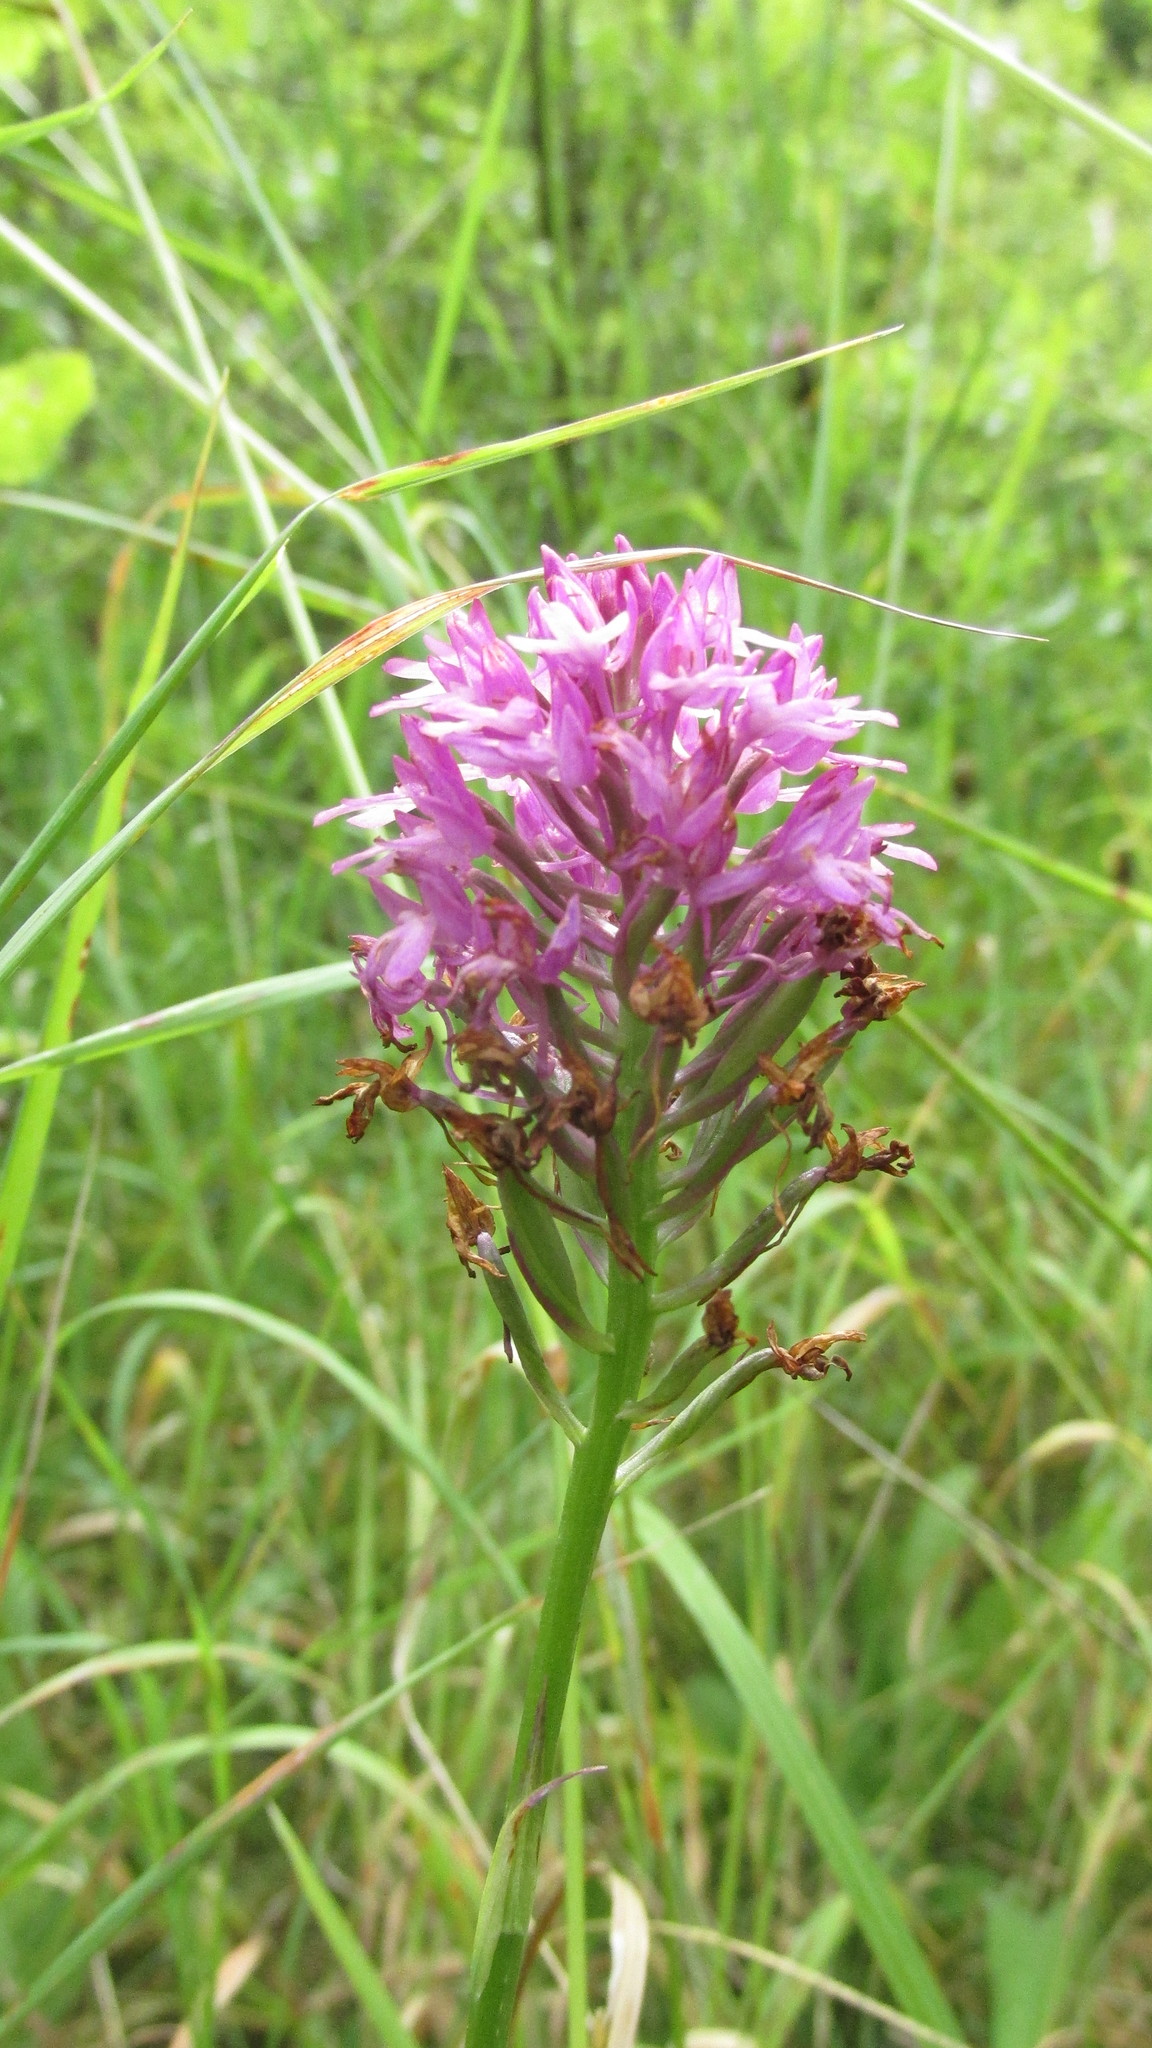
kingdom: Plantae
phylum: Tracheophyta
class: Liliopsida
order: Asparagales
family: Orchidaceae
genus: Anacamptis
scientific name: Anacamptis pyramidalis
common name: Pyramidal orchid
